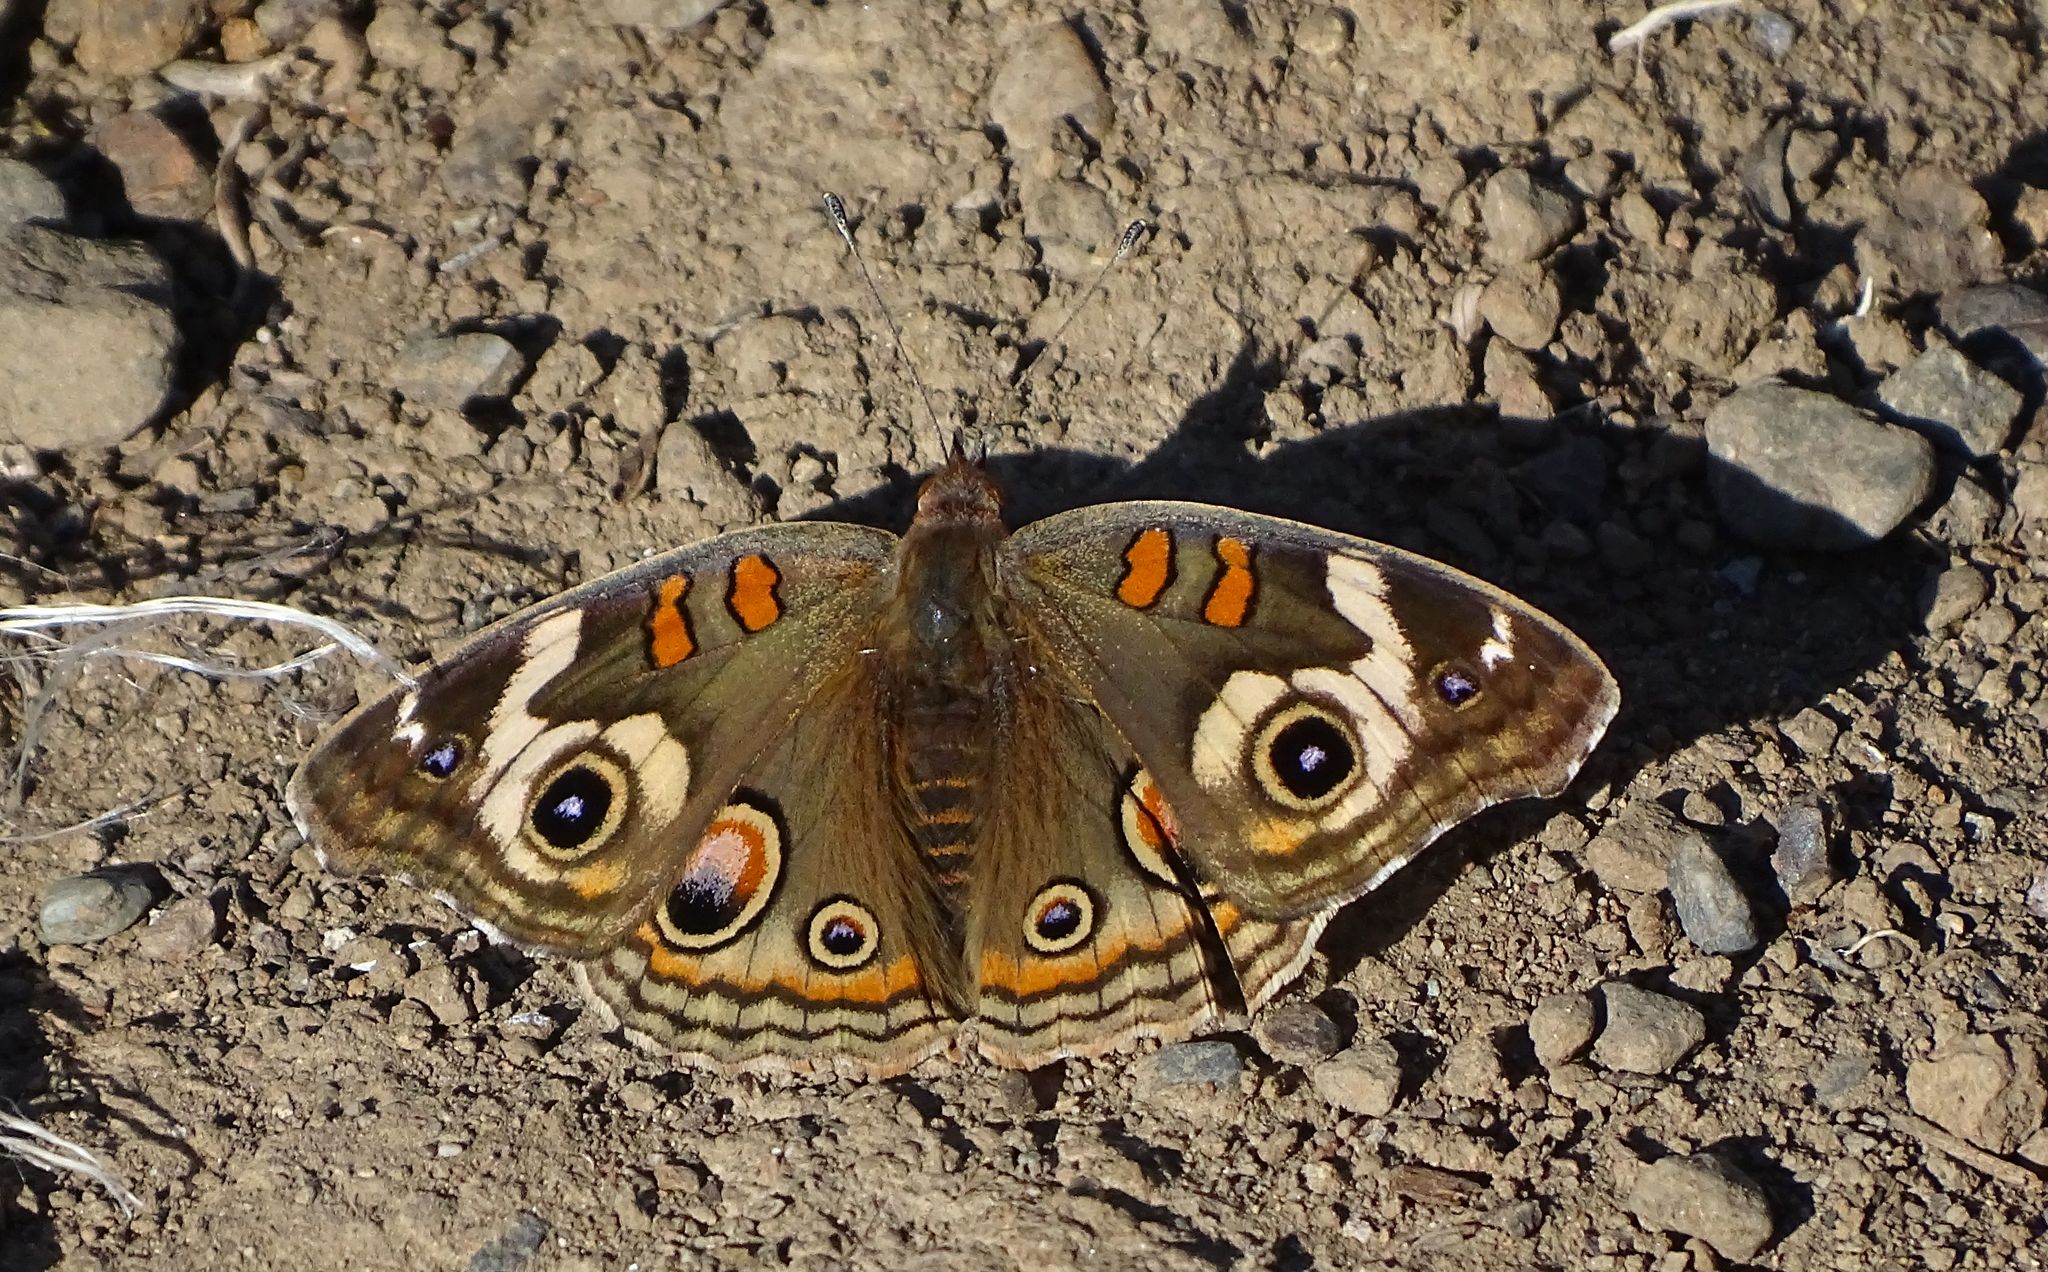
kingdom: Animalia
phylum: Arthropoda
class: Insecta
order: Lepidoptera
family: Nymphalidae
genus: Junonia
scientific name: Junonia grisea
